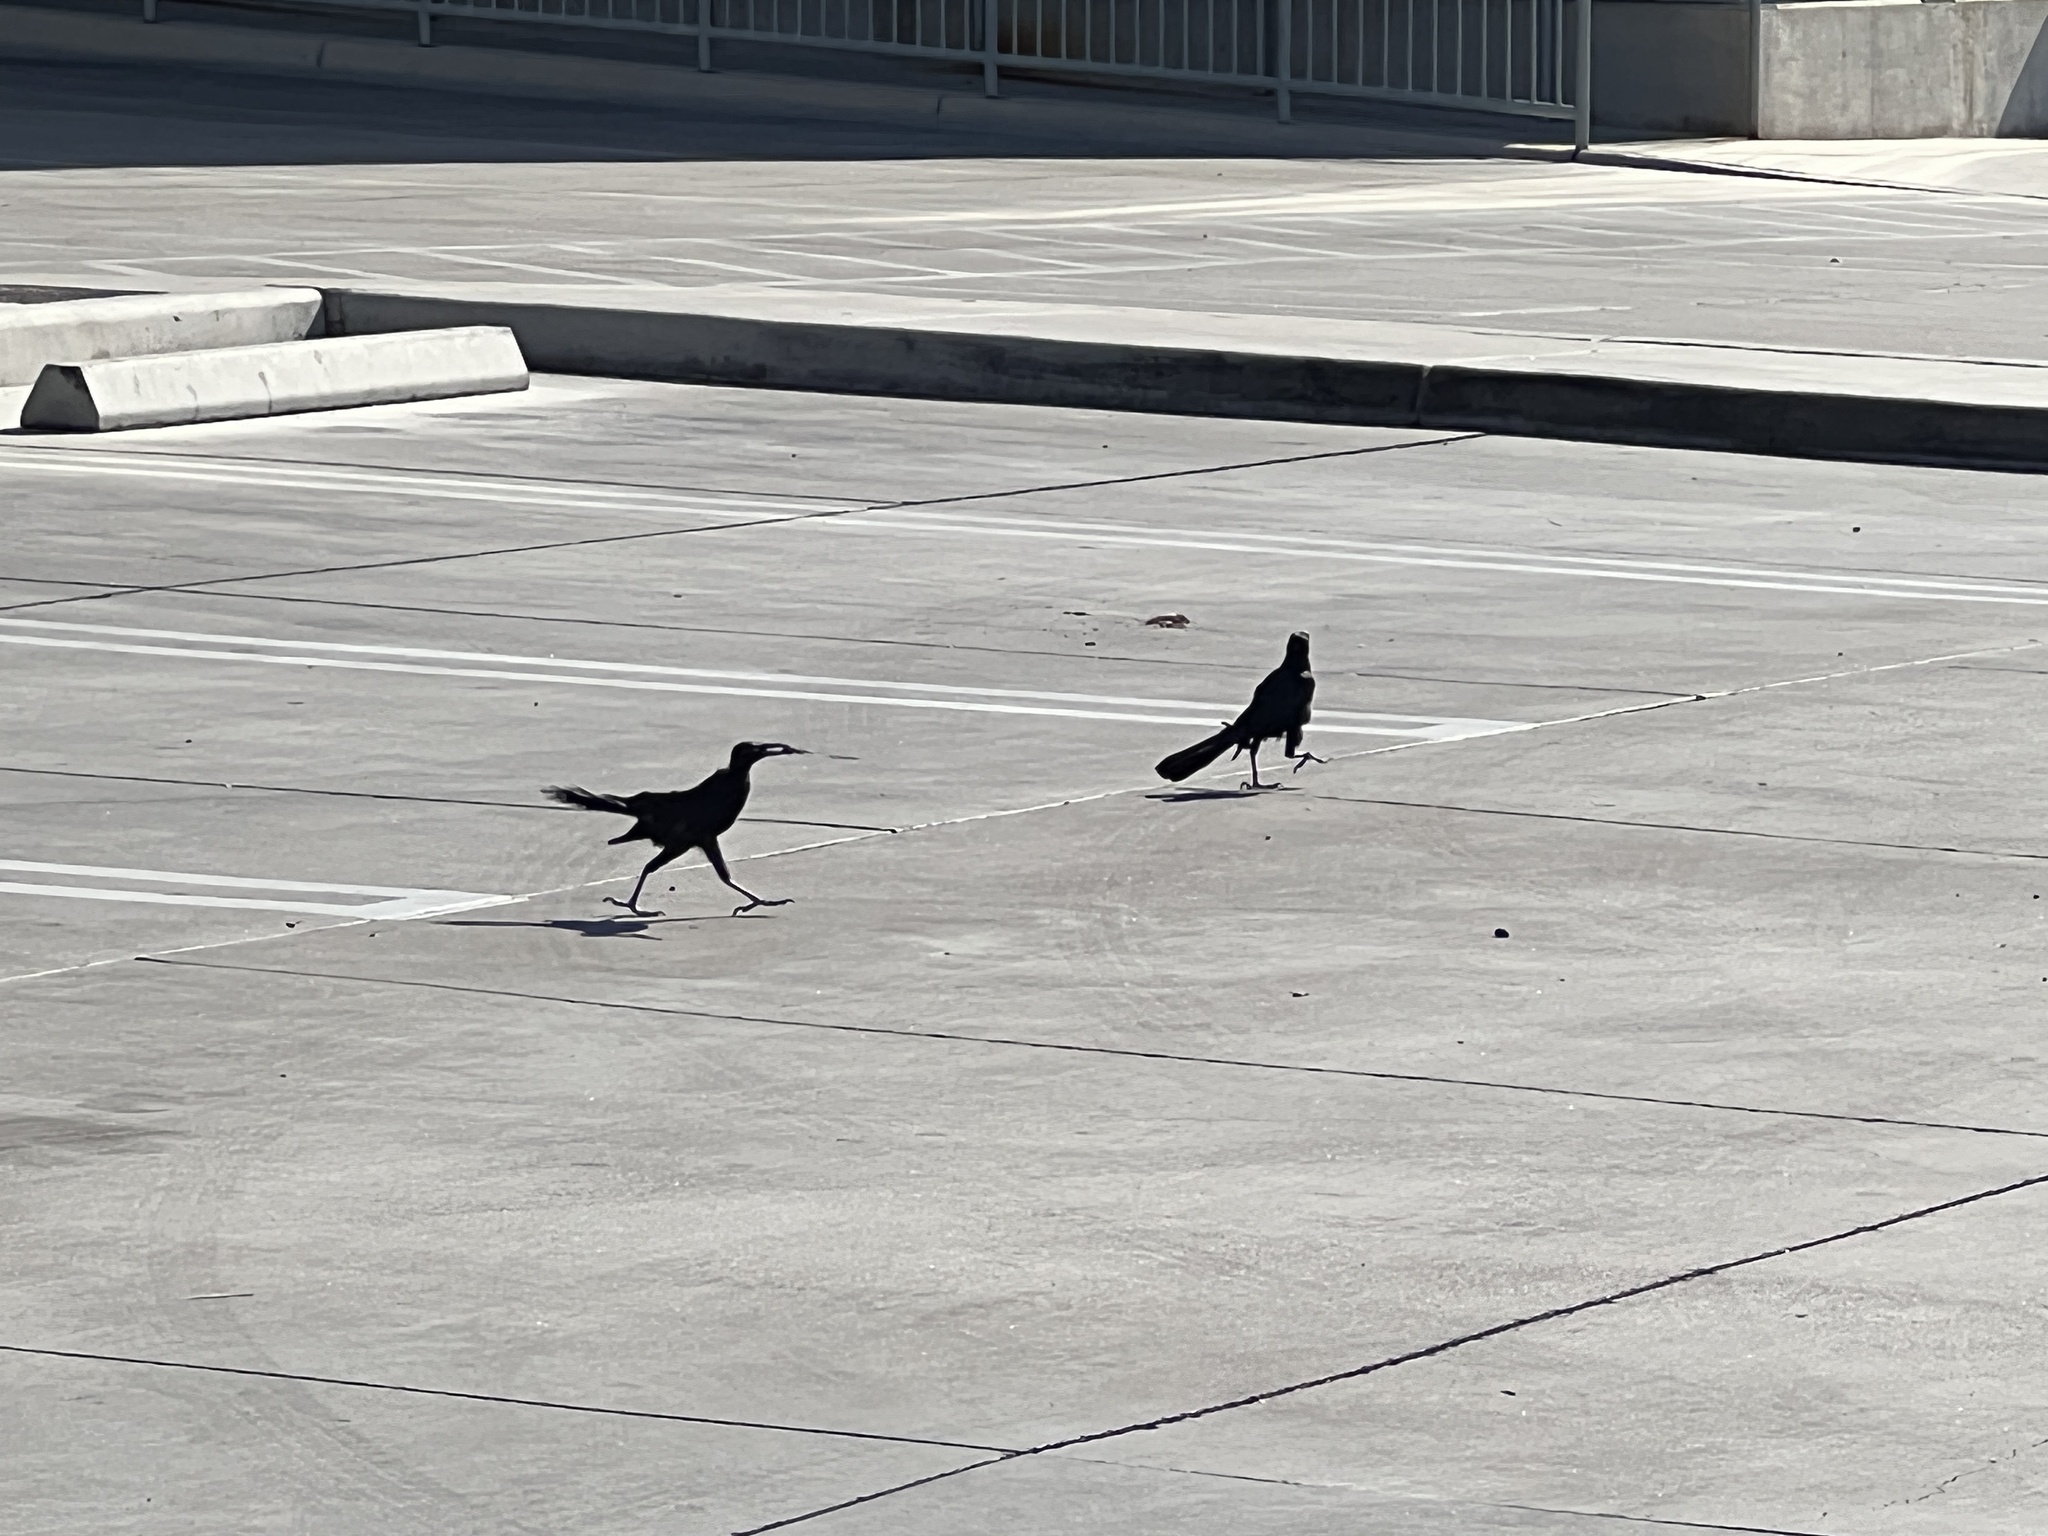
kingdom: Animalia
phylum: Chordata
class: Aves
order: Passeriformes
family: Icteridae
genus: Quiscalus
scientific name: Quiscalus mexicanus
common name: Great-tailed grackle
